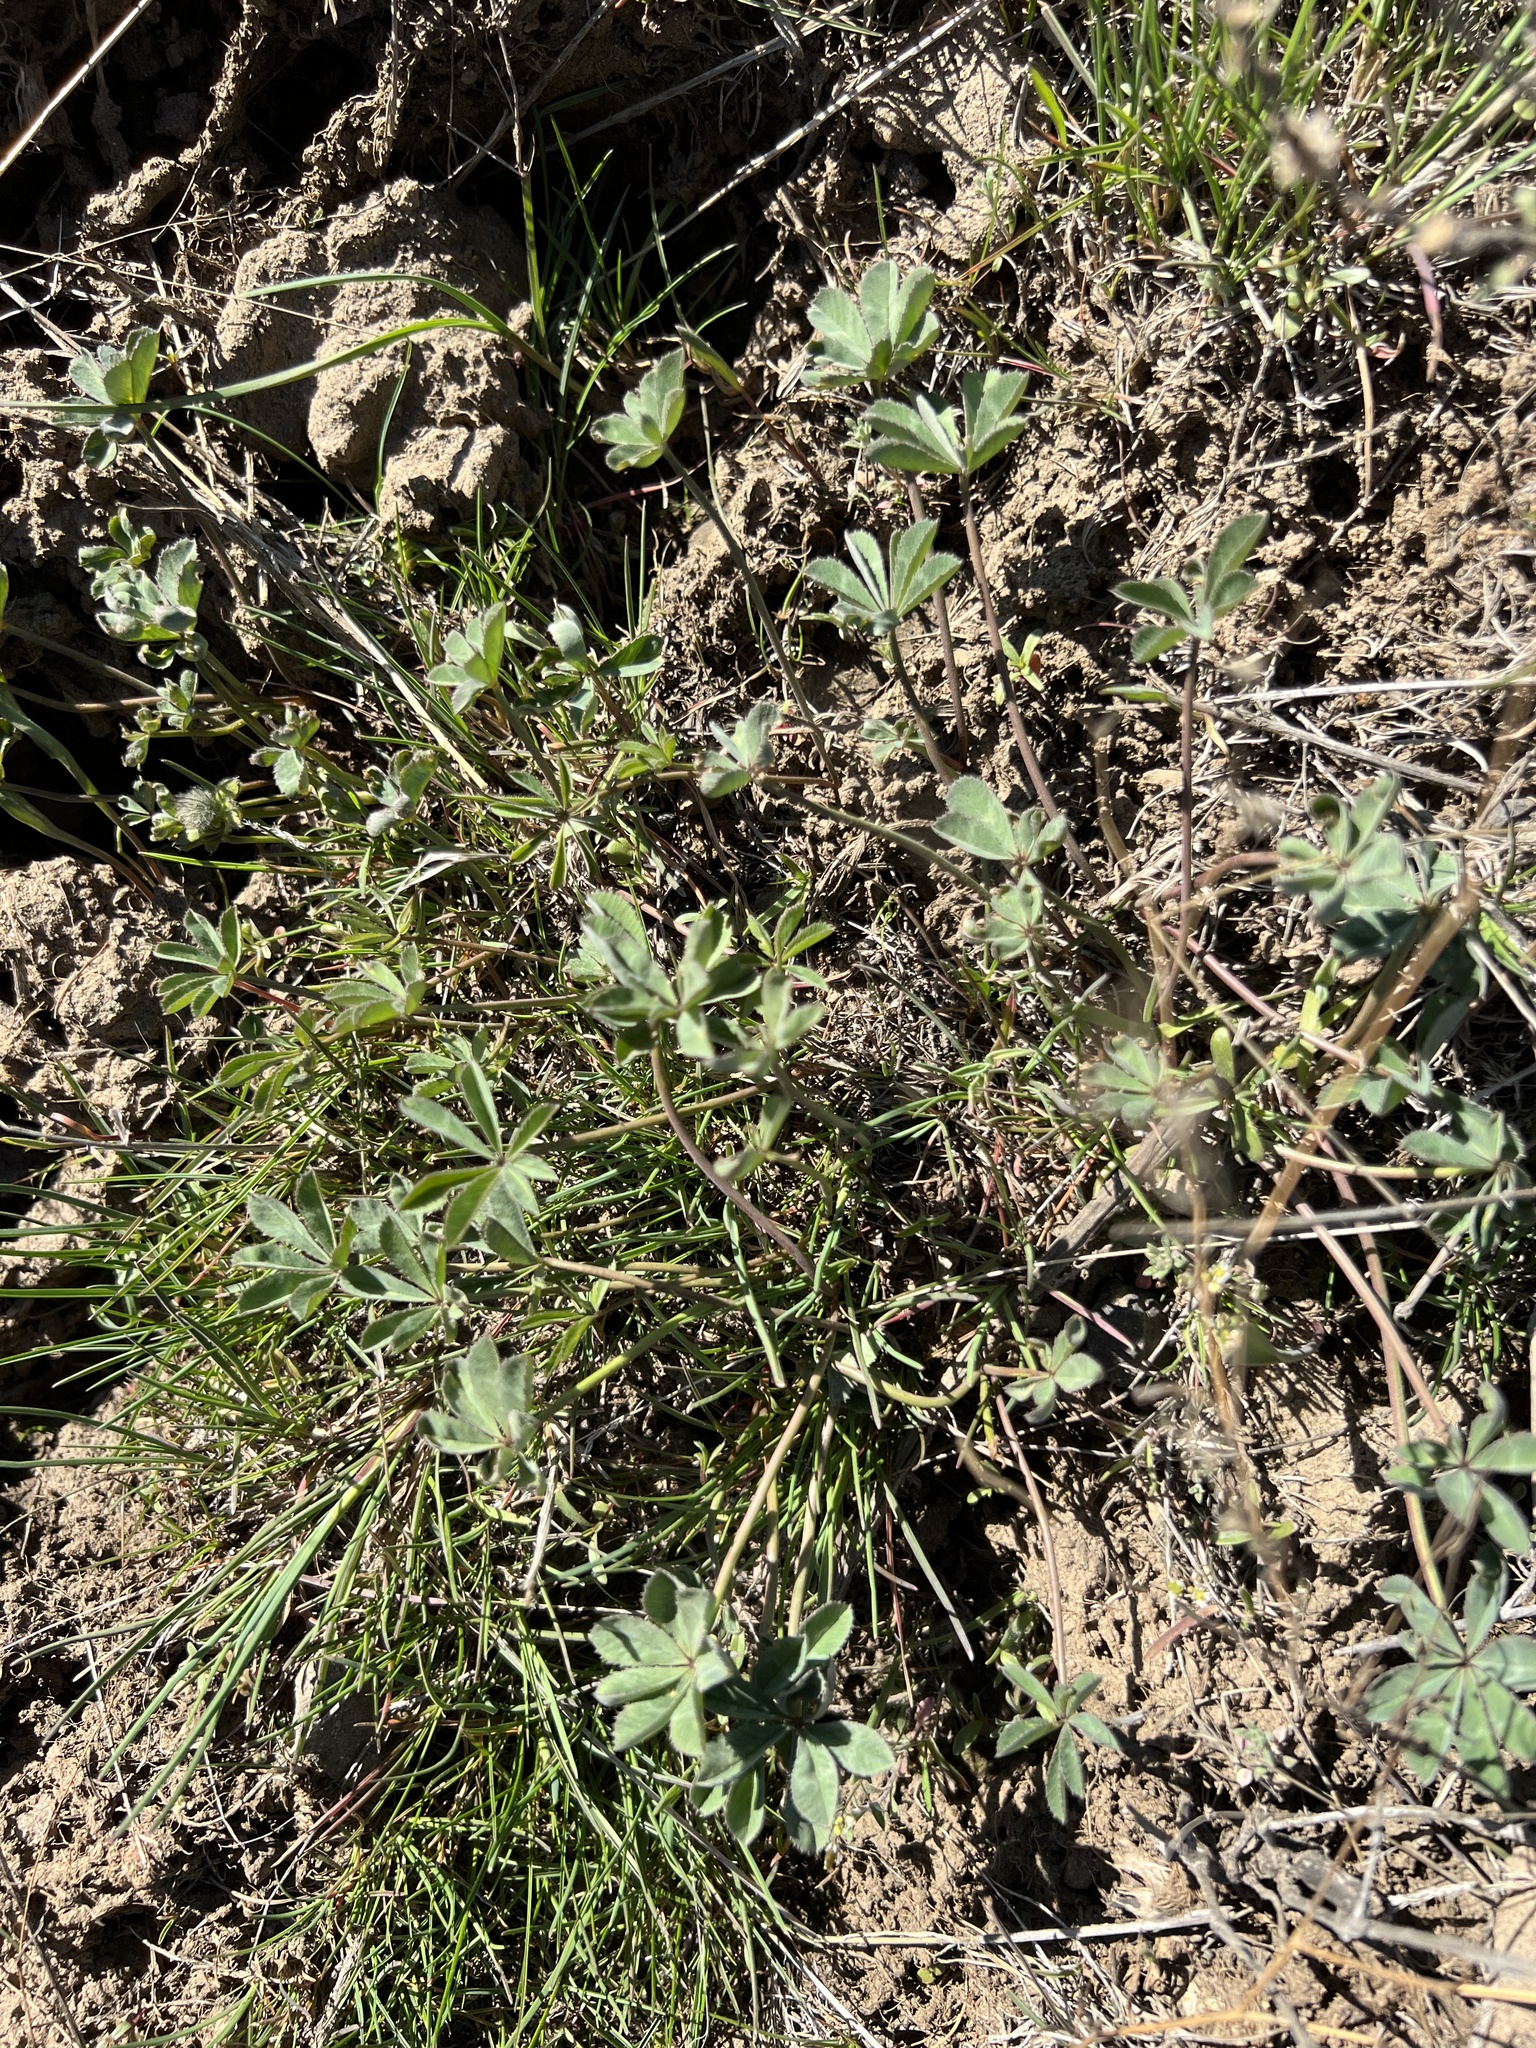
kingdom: Plantae
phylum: Tracheophyta
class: Magnoliopsida
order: Fabales
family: Fabaceae
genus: Trifolium
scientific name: Trifolium macrocephalum
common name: Large-head clover
